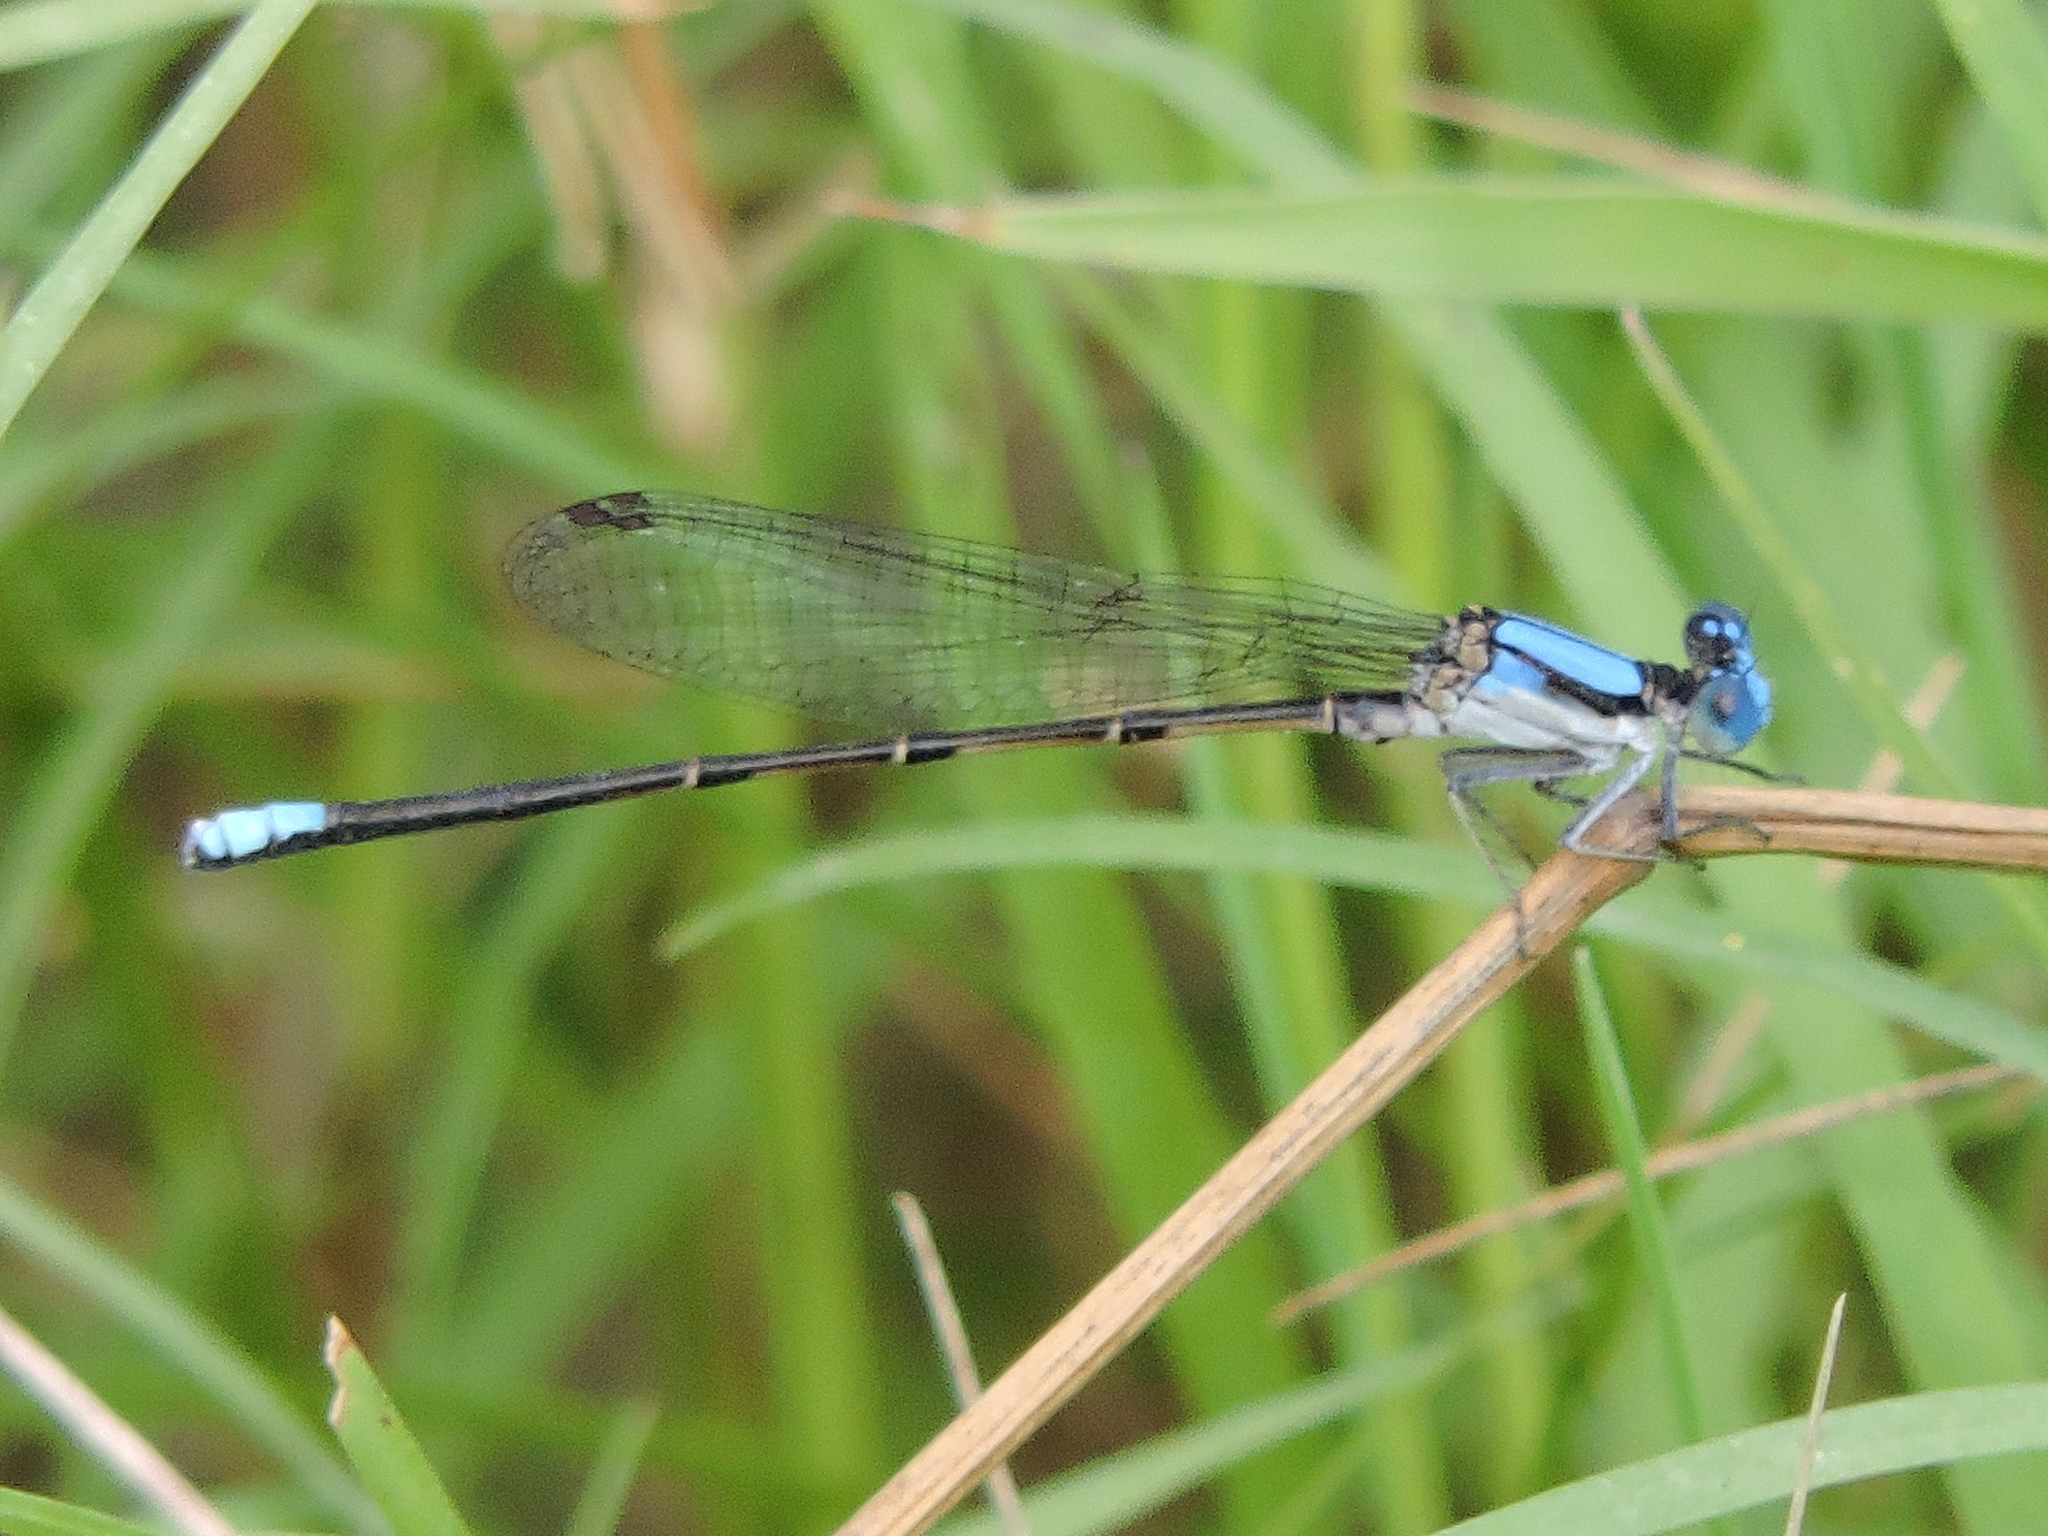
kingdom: Animalia
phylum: Arthropoda
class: Insecta
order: Odonata
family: Coenagrionidae
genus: Argia
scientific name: Argia apicalis
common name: Blue-fronted dancer
